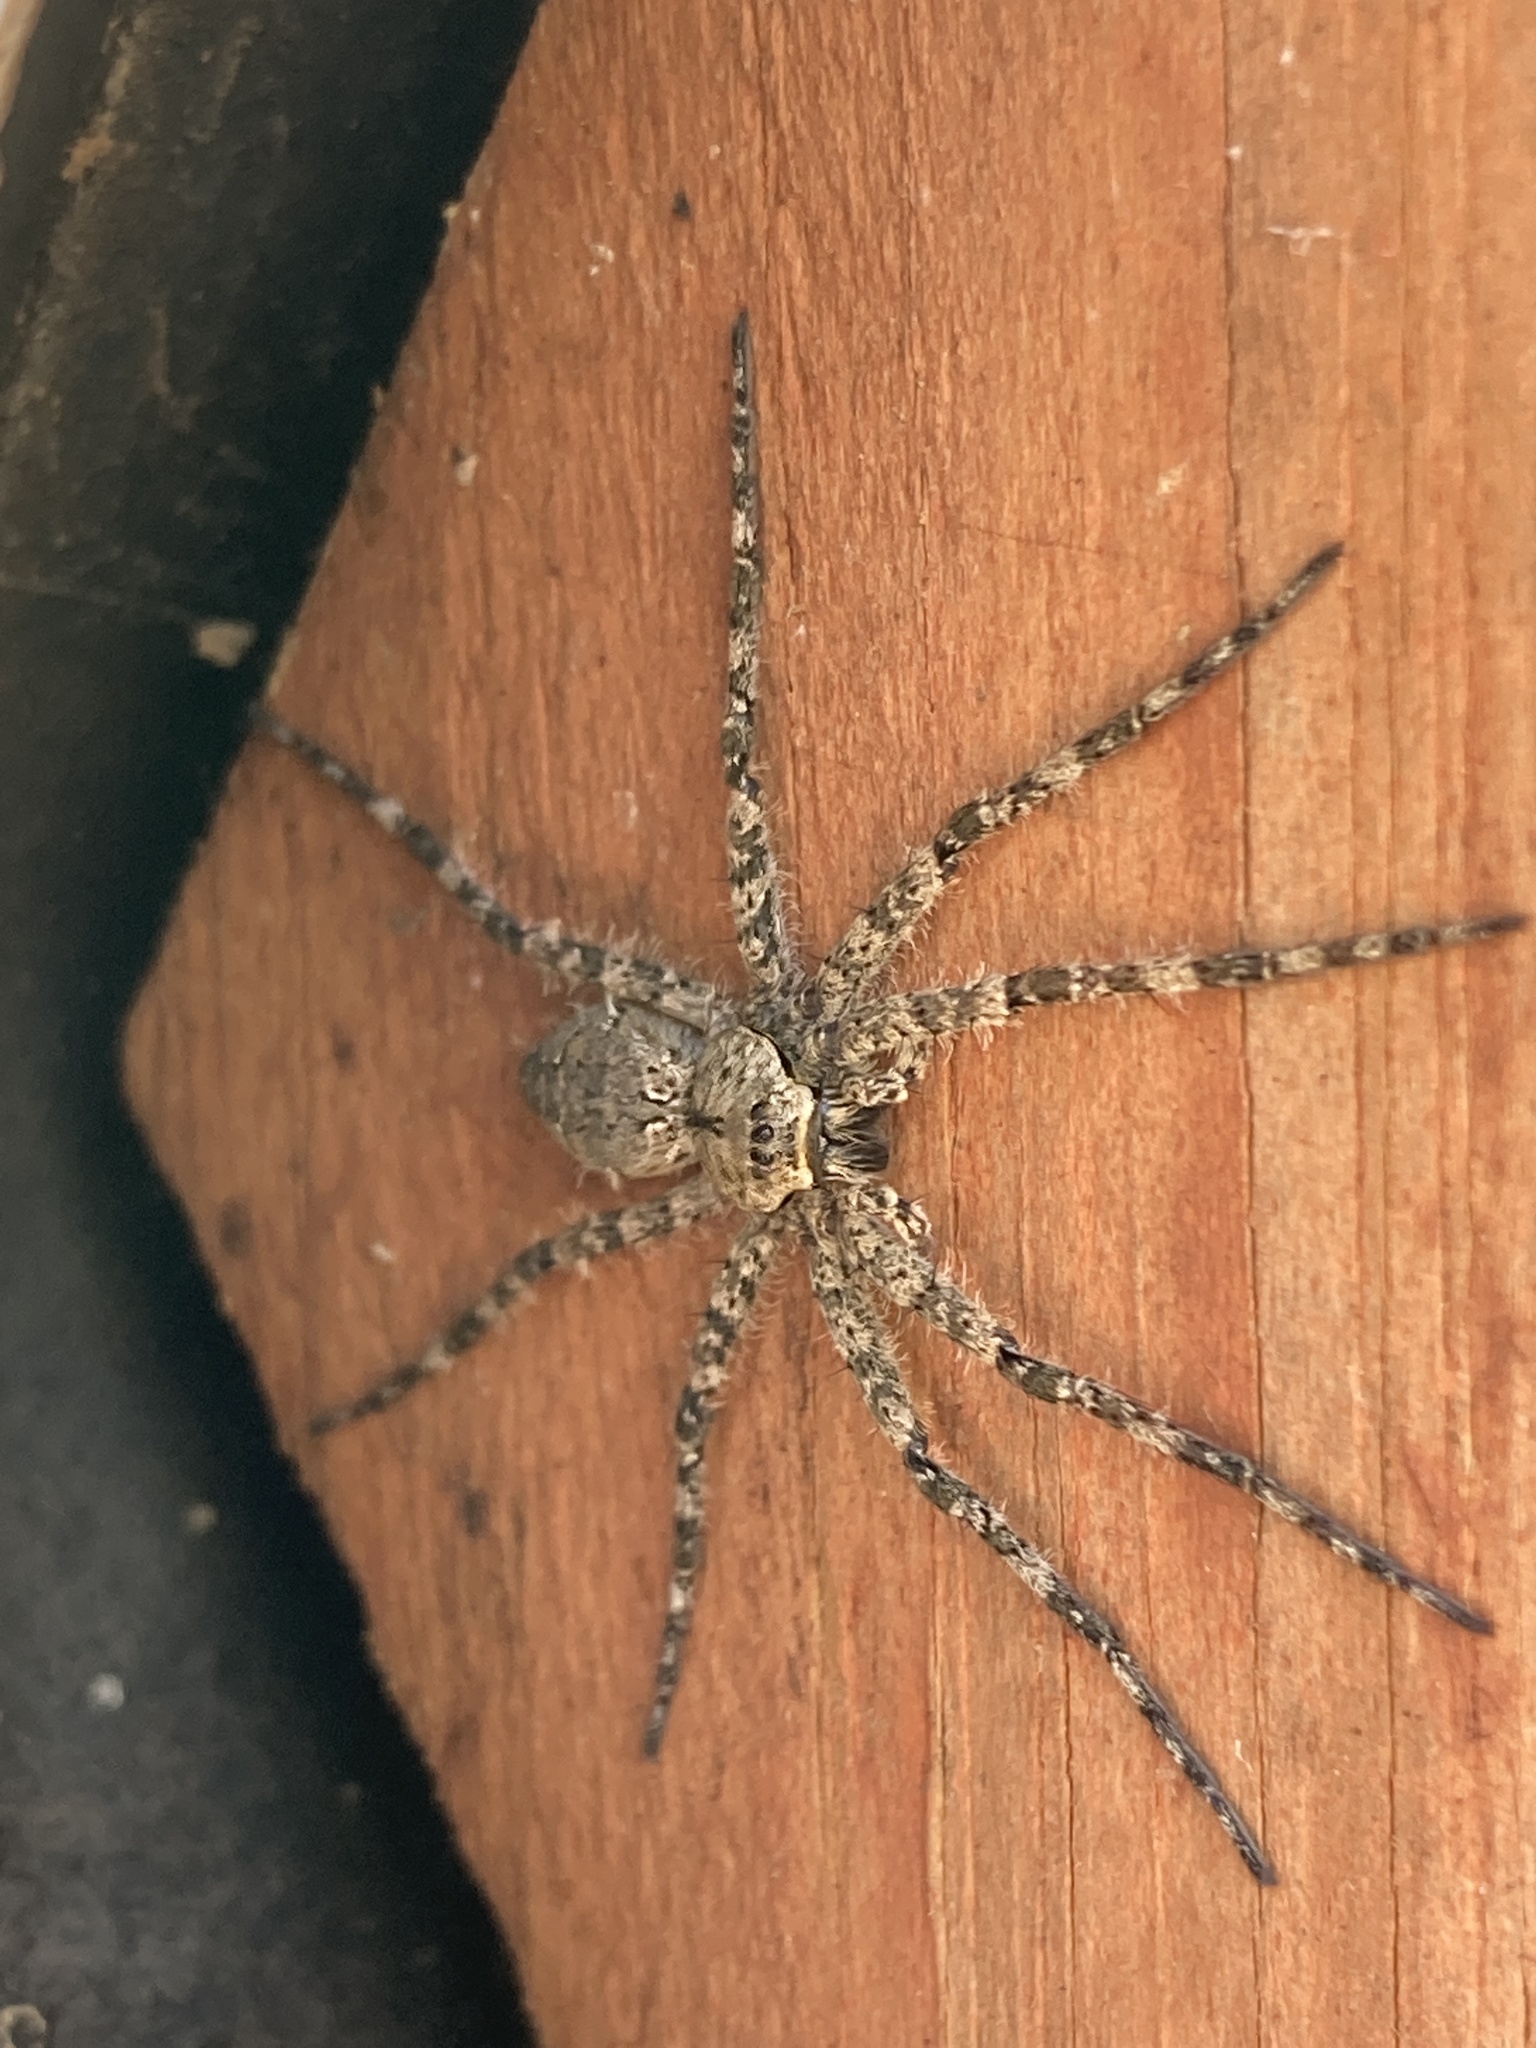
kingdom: Animalia
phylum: Arthropoda
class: Arachnida
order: Araneae
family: Pisauridae
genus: Dolomedes
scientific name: Dolomedes albineus
